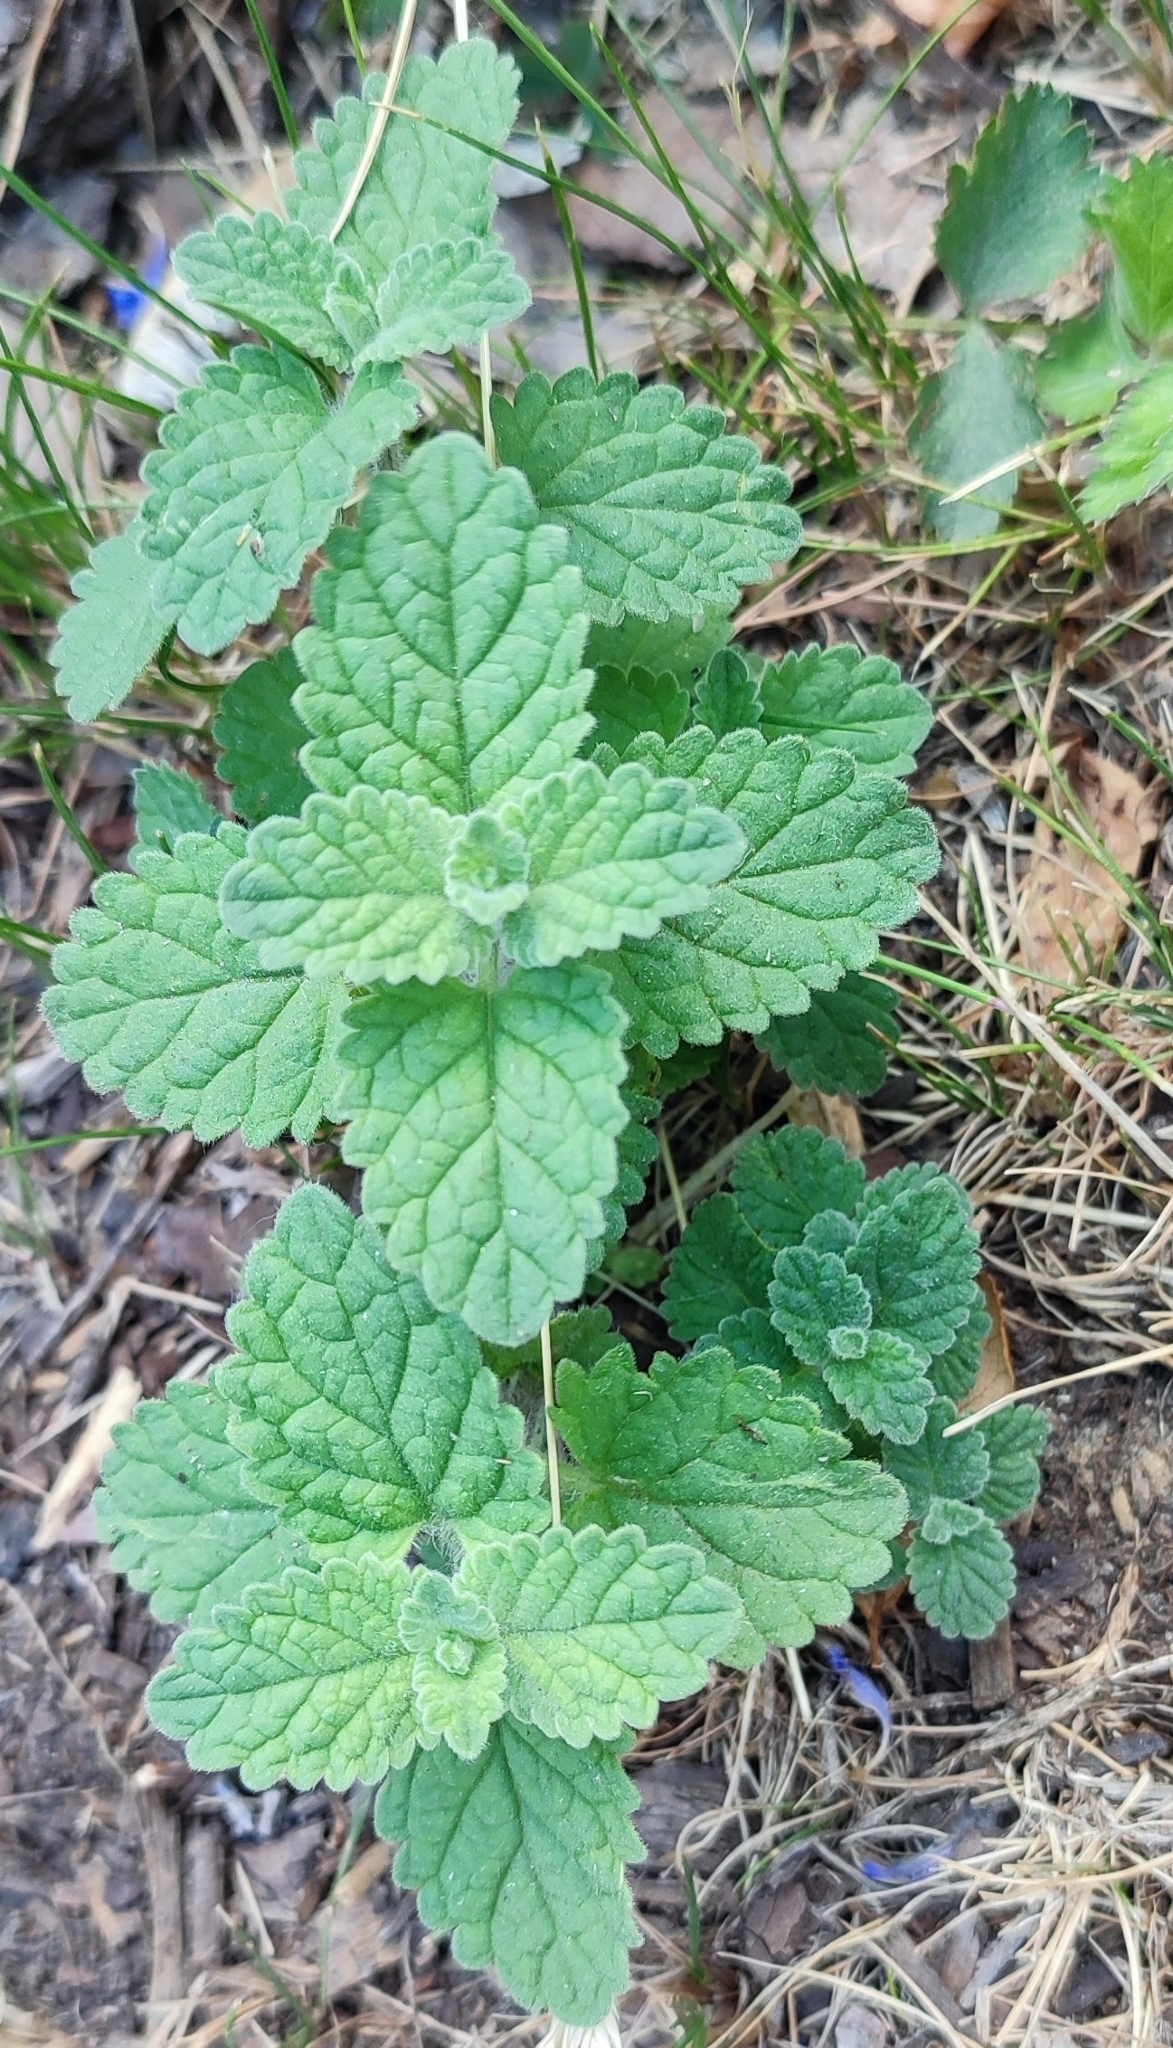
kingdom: Plantae
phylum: Tracheophyta
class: Magnoliopsida
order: Lamiales
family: Lamiaceae
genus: Nepeta
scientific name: Nepeta cataria
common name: Catnip
